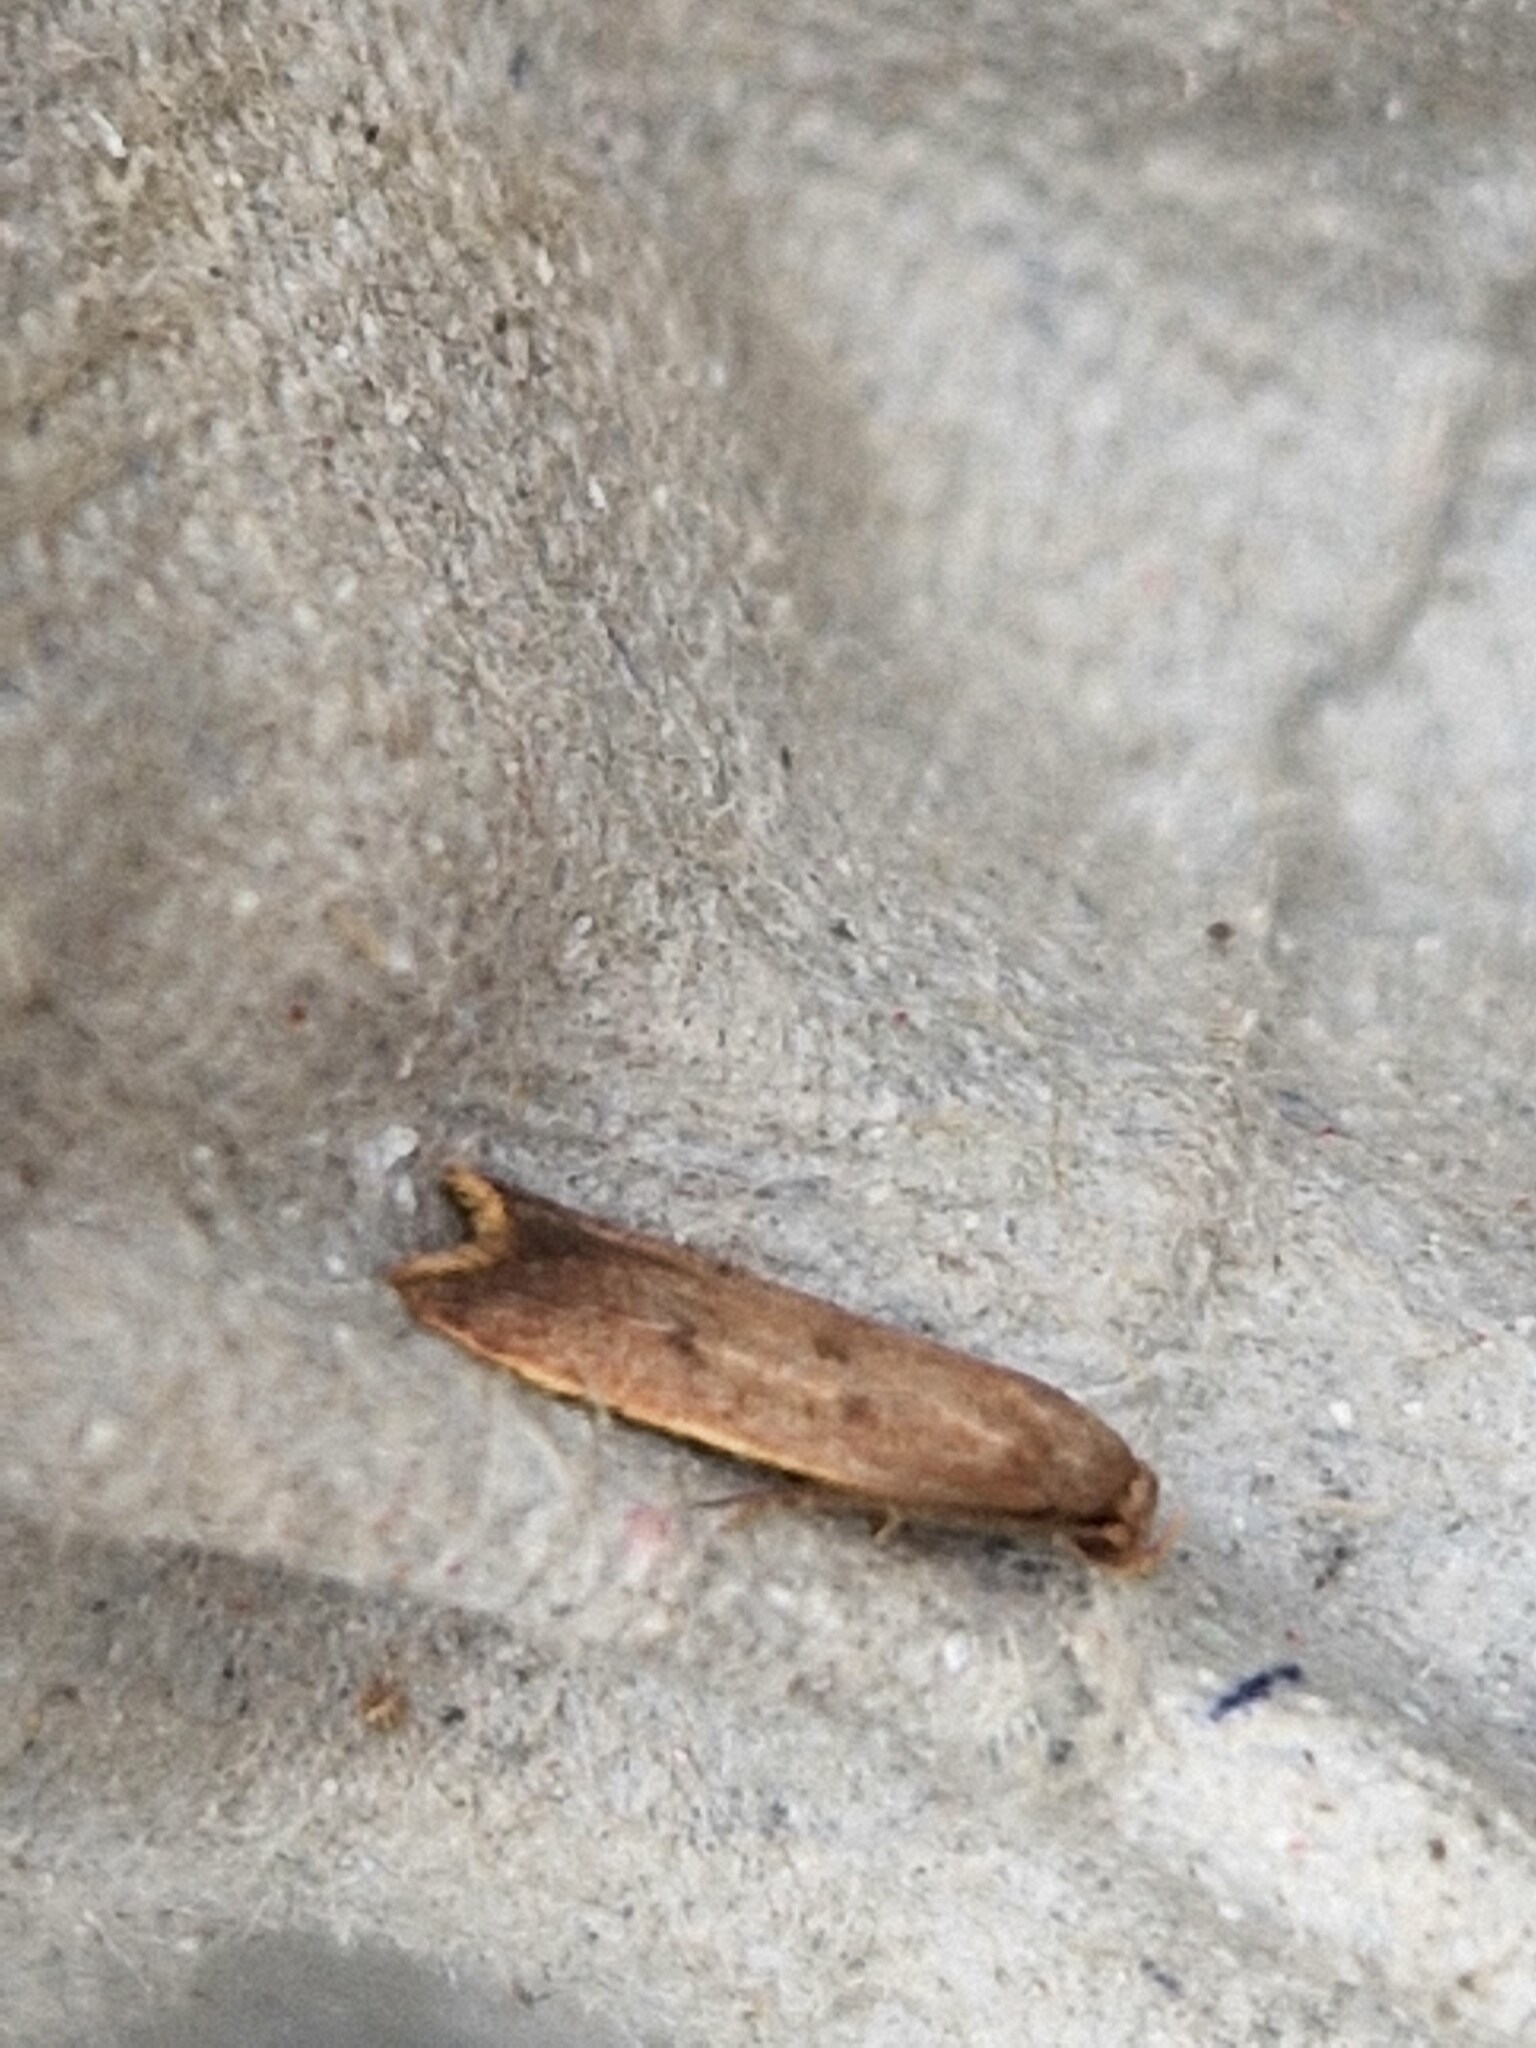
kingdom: Animalia
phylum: Arthropoda
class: Insecta
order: Lepidoptera
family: Oecophoridae
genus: Tachystola
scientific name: Tachystola acroxantha
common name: Ruddy streak
